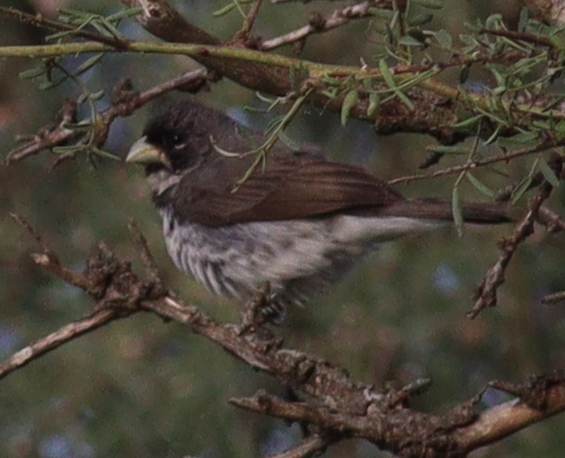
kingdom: Animalia
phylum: Chordata
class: Aves
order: Passeriformes
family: Thraupidae
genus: Sporophila
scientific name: Sporophila caerulescens
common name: Double-collared seedeater
